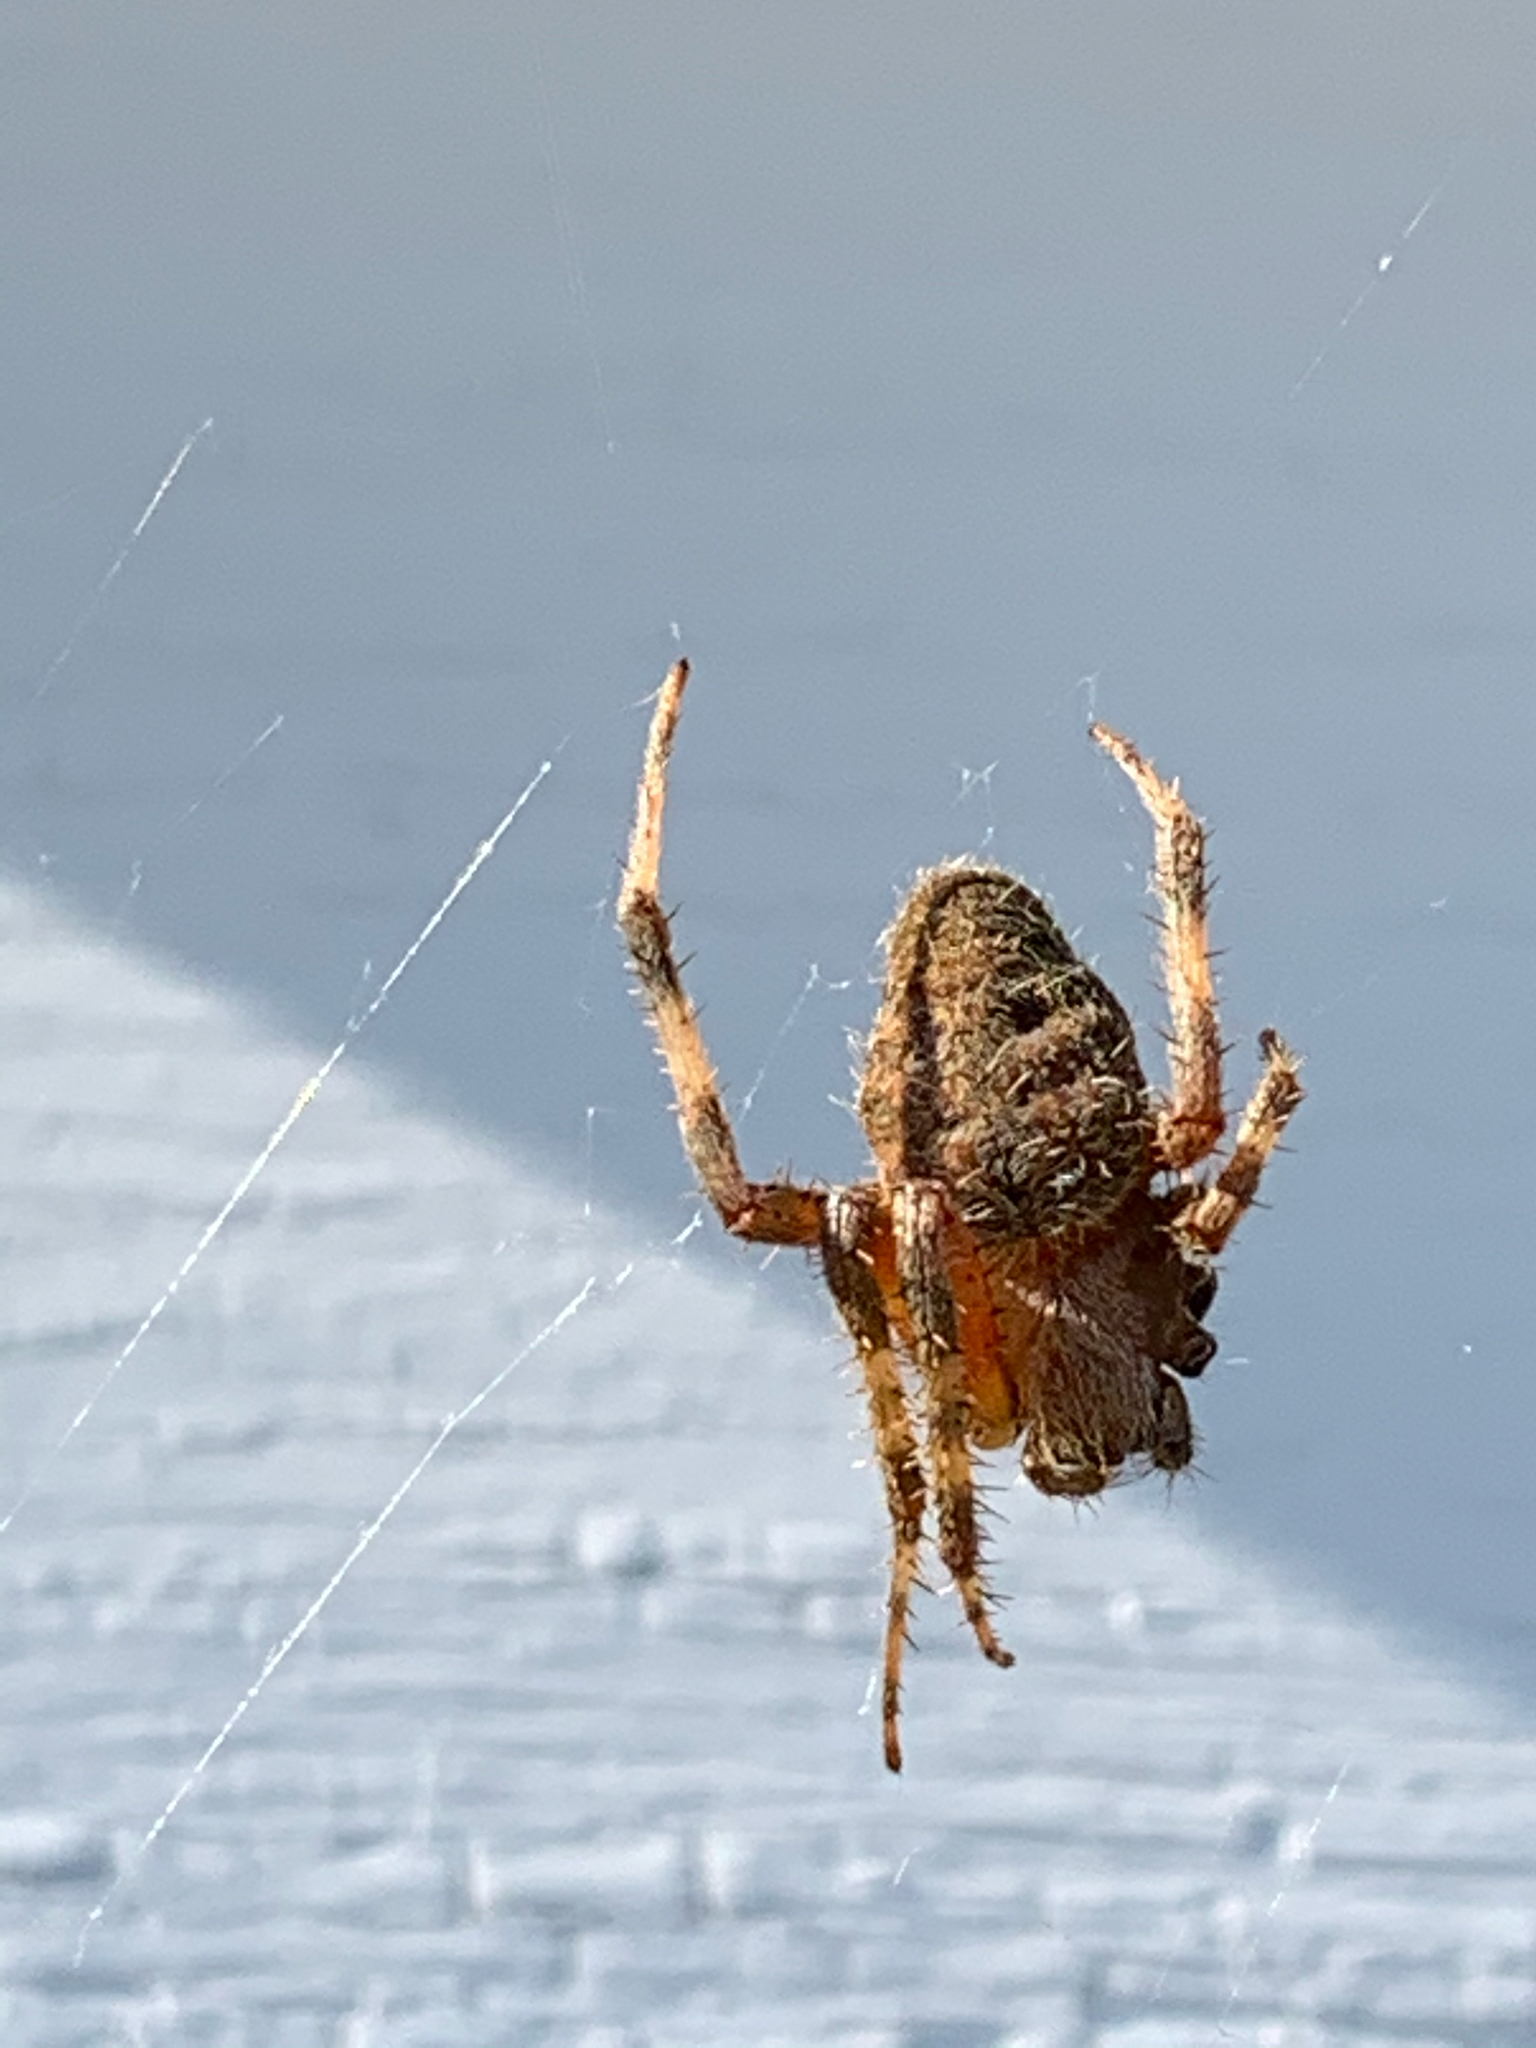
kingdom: Animalia
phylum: Arthropoda
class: Arachnida
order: Araneae
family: Araneidae
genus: Neoscona
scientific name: Neoscona crucifera
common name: Spotted orbweaver
